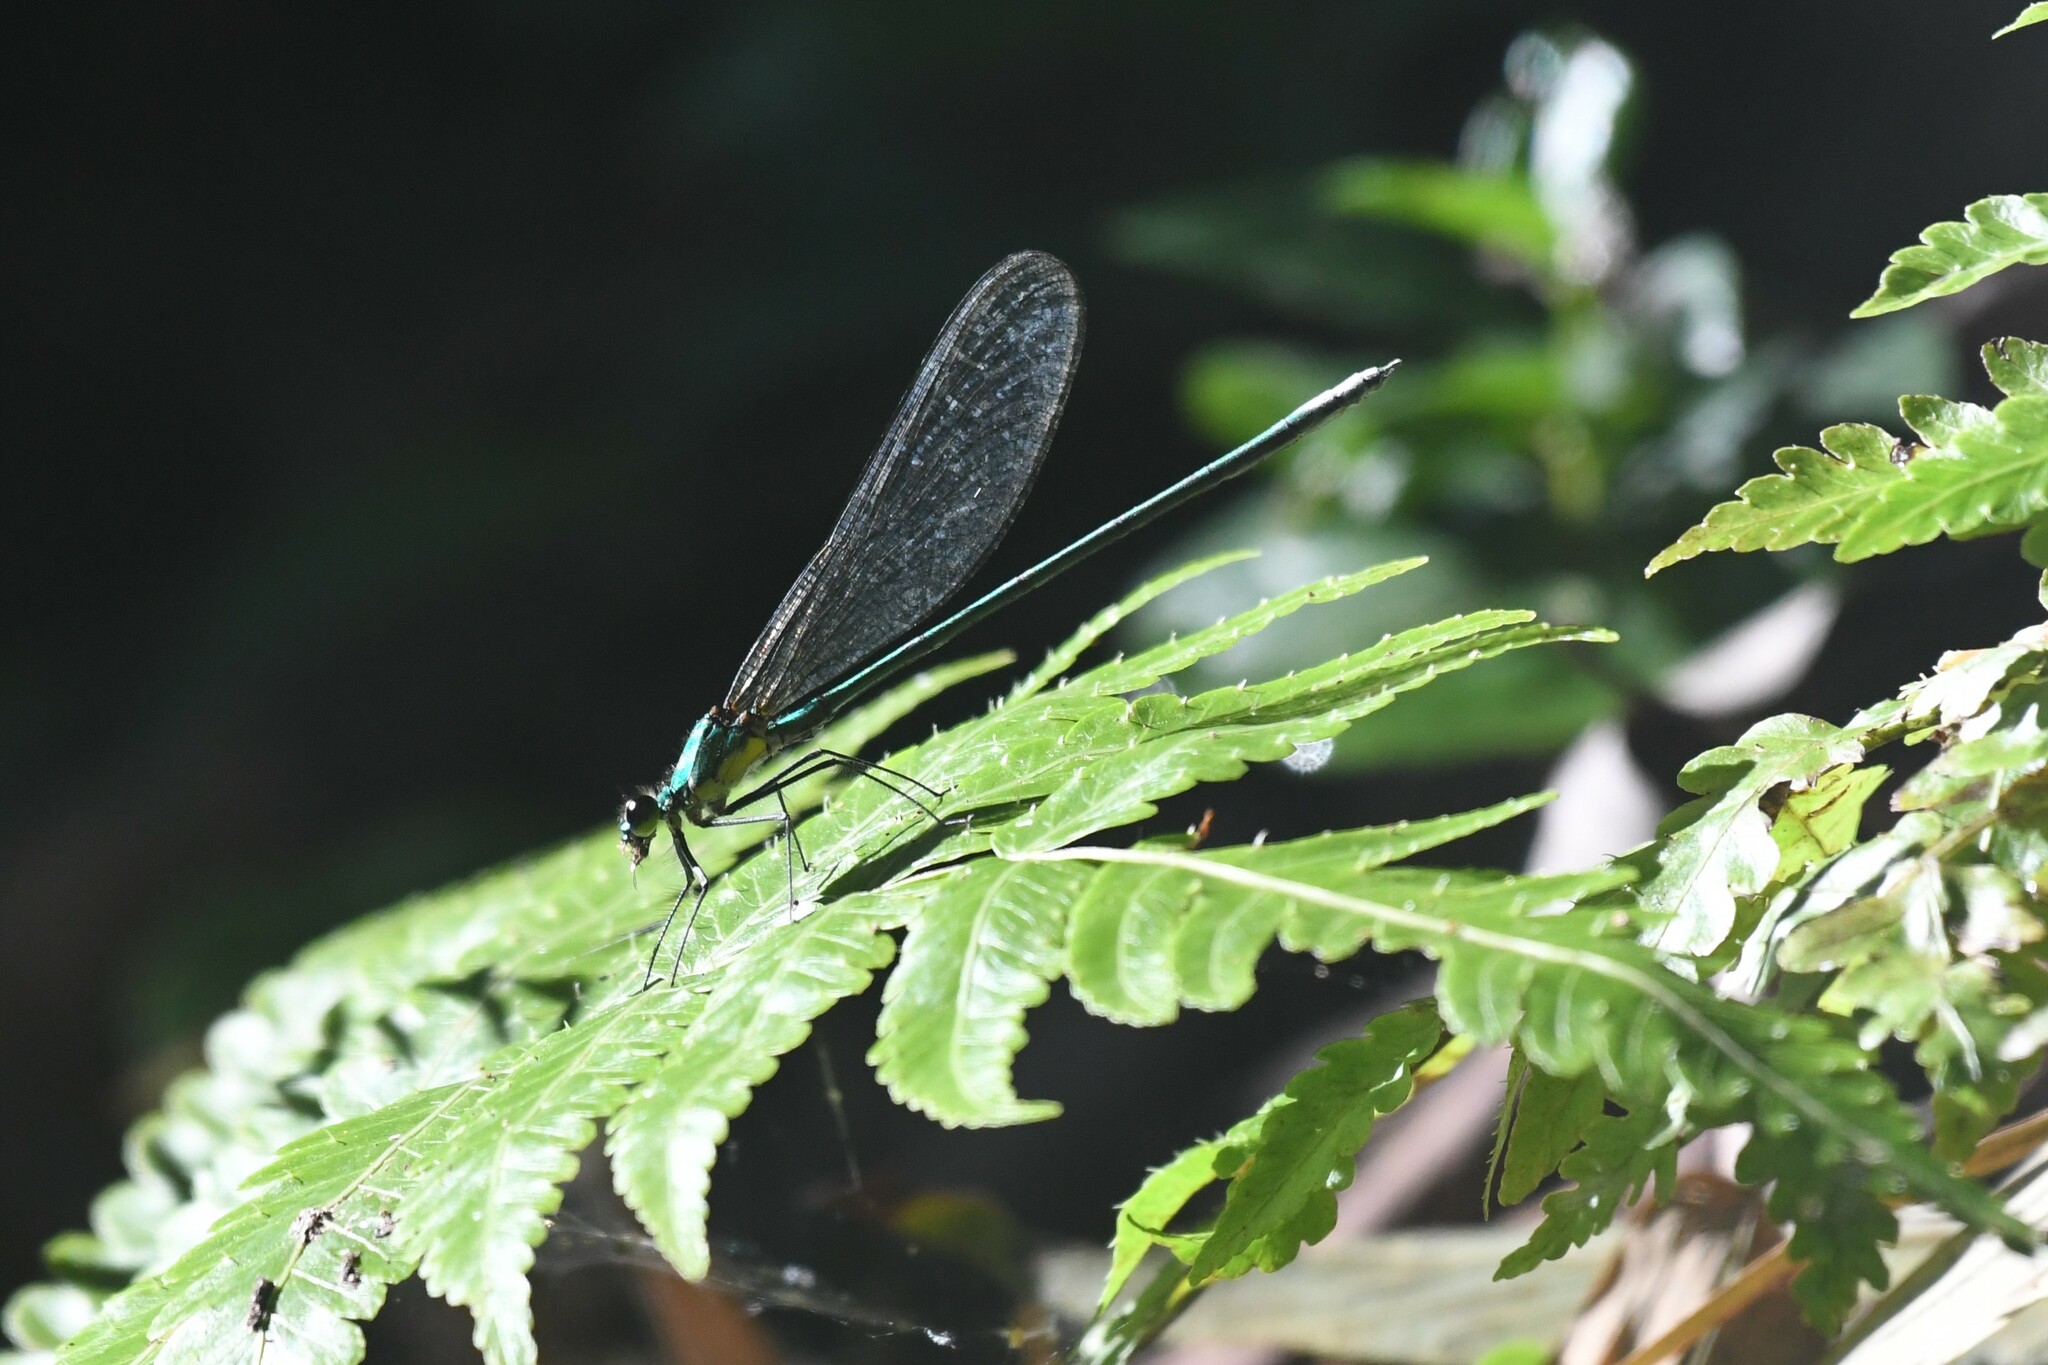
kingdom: Animalia
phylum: Arthropoda
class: Insecta
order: Odonata
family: Calopterygidae
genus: Vestalaria
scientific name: Vestalaria smaragdina
